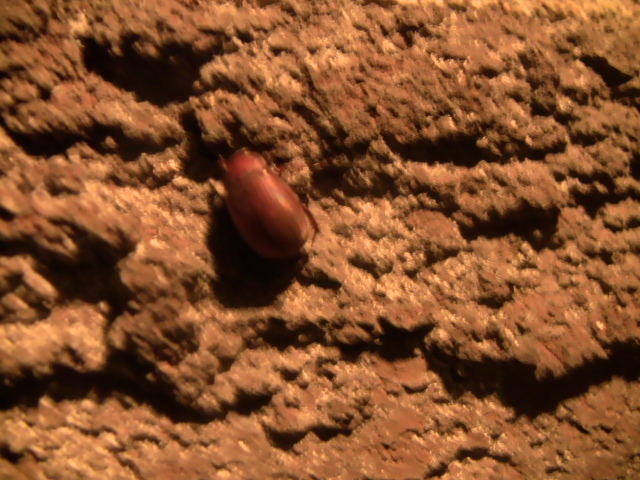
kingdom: Animalia
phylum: Arthropoda
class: Insecta
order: Coleoptera
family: Scarabaeidae
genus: Maladera
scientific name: Maladera formosae
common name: Asiatic garden beetle
